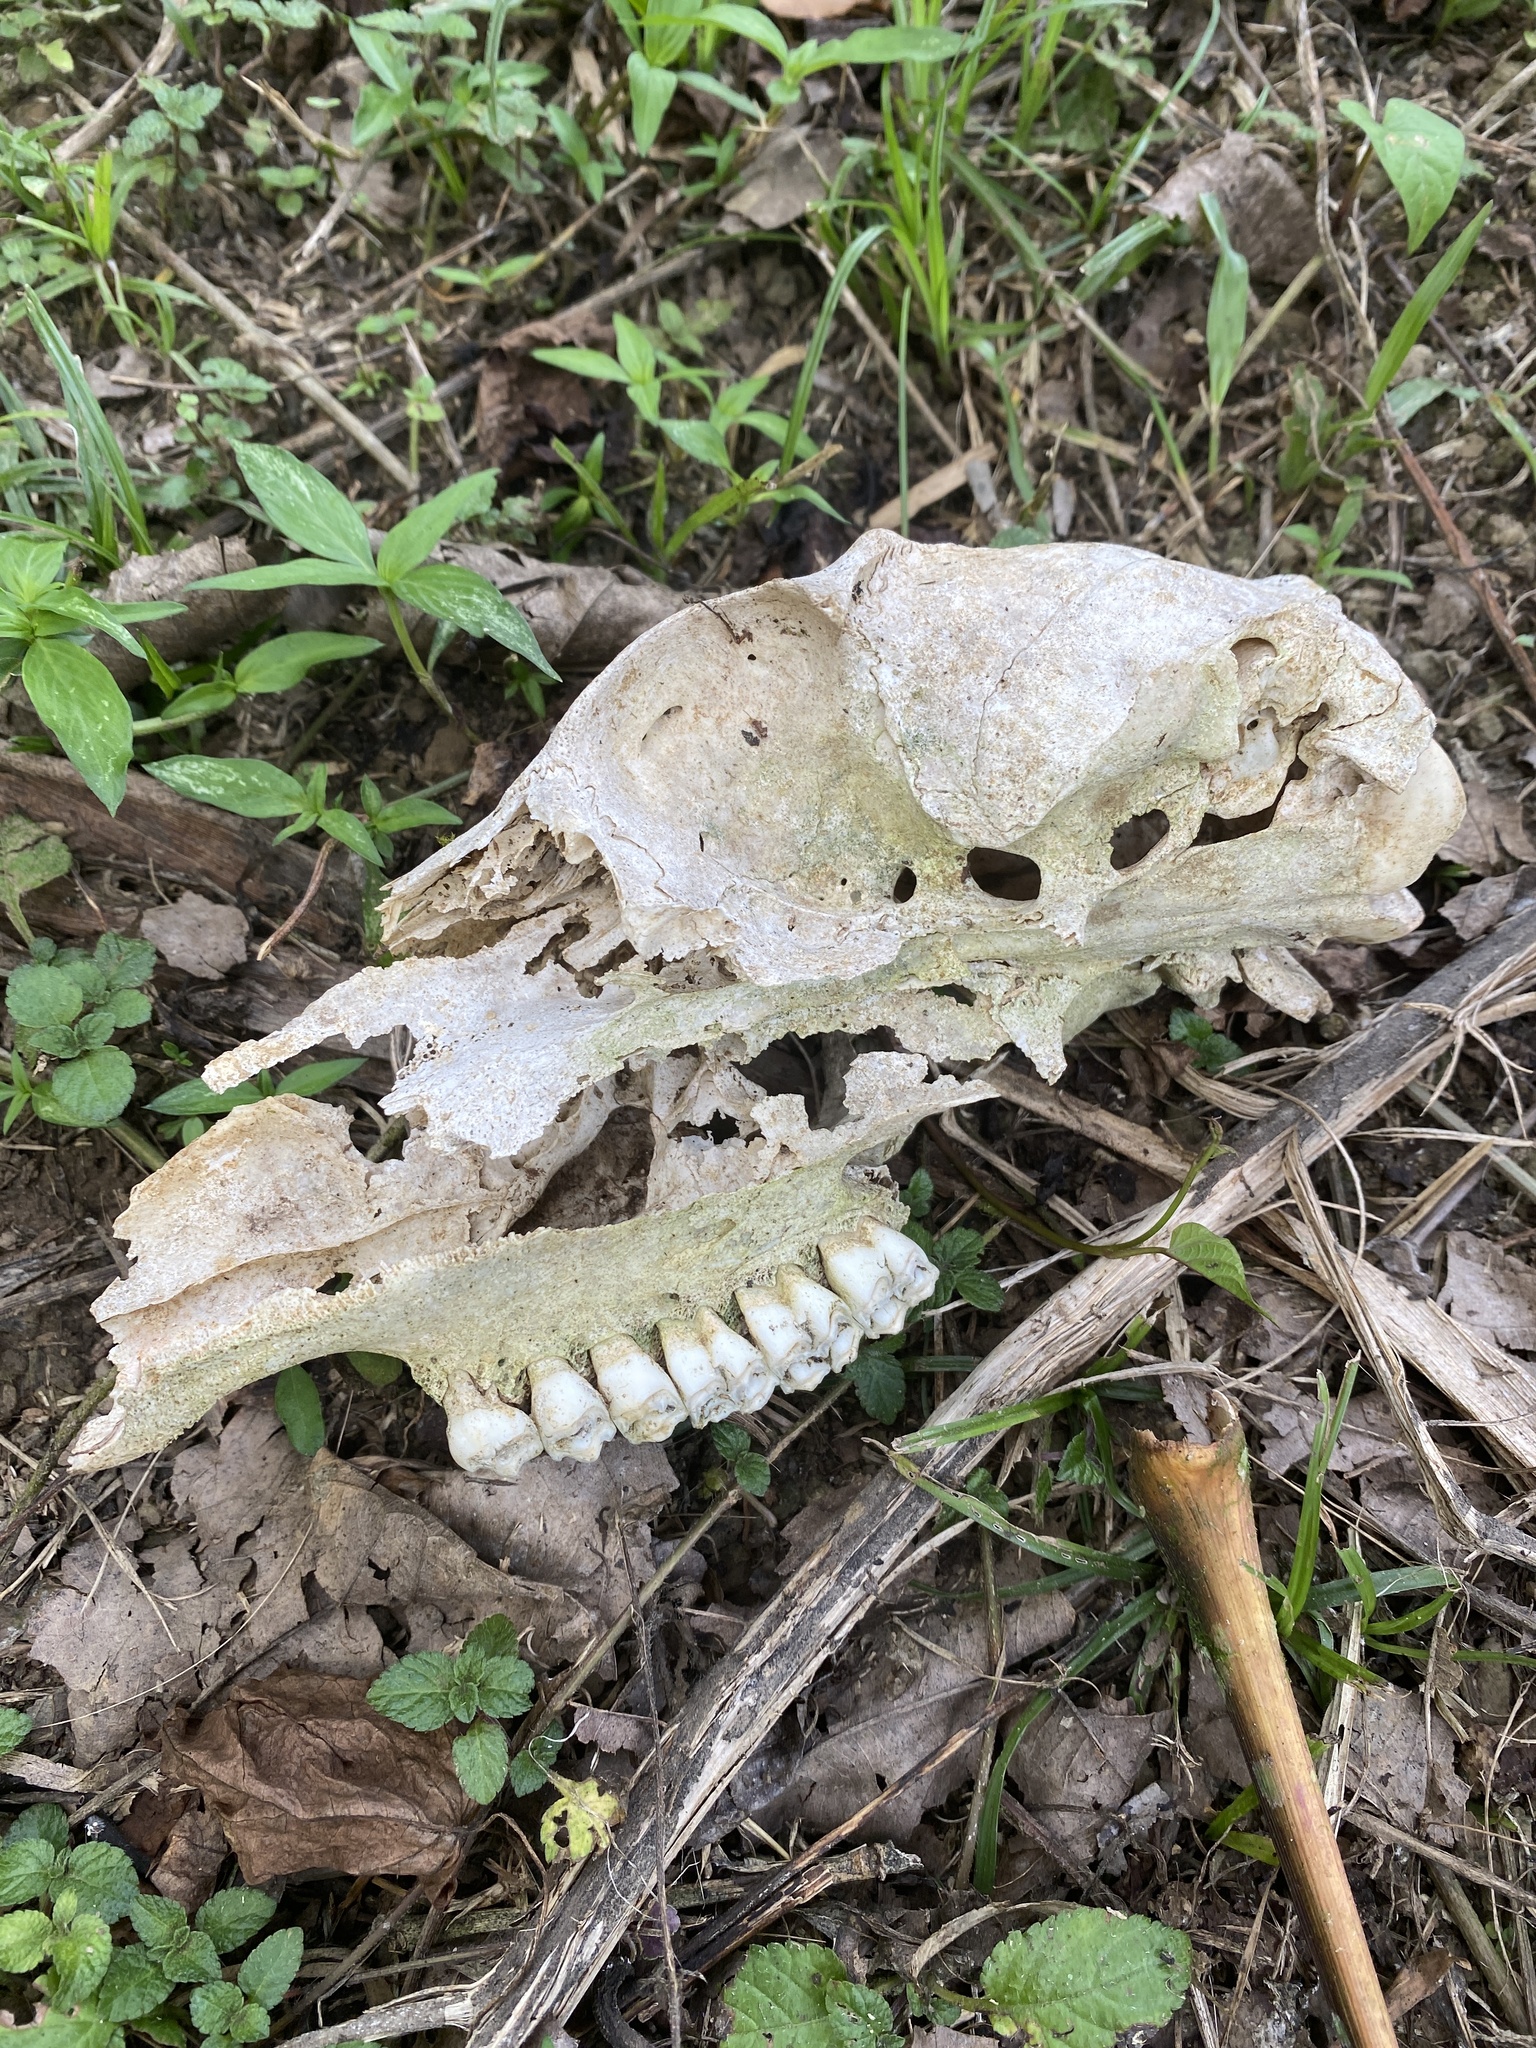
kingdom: Animalia
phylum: Chordata
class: Mammalia
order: Artiodactyla
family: Cervidae
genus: Mazama
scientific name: Mazama americana
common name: Red brocket
